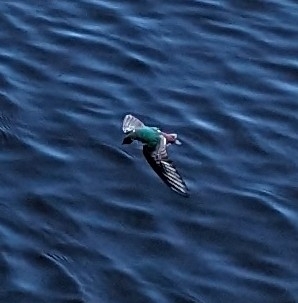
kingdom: Animalia
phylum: Chordata
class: Aves
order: Passeriformes
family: Hirundinidae
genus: Tachycineta
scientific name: Tachycineta thalassina
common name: Violet-green swallow
